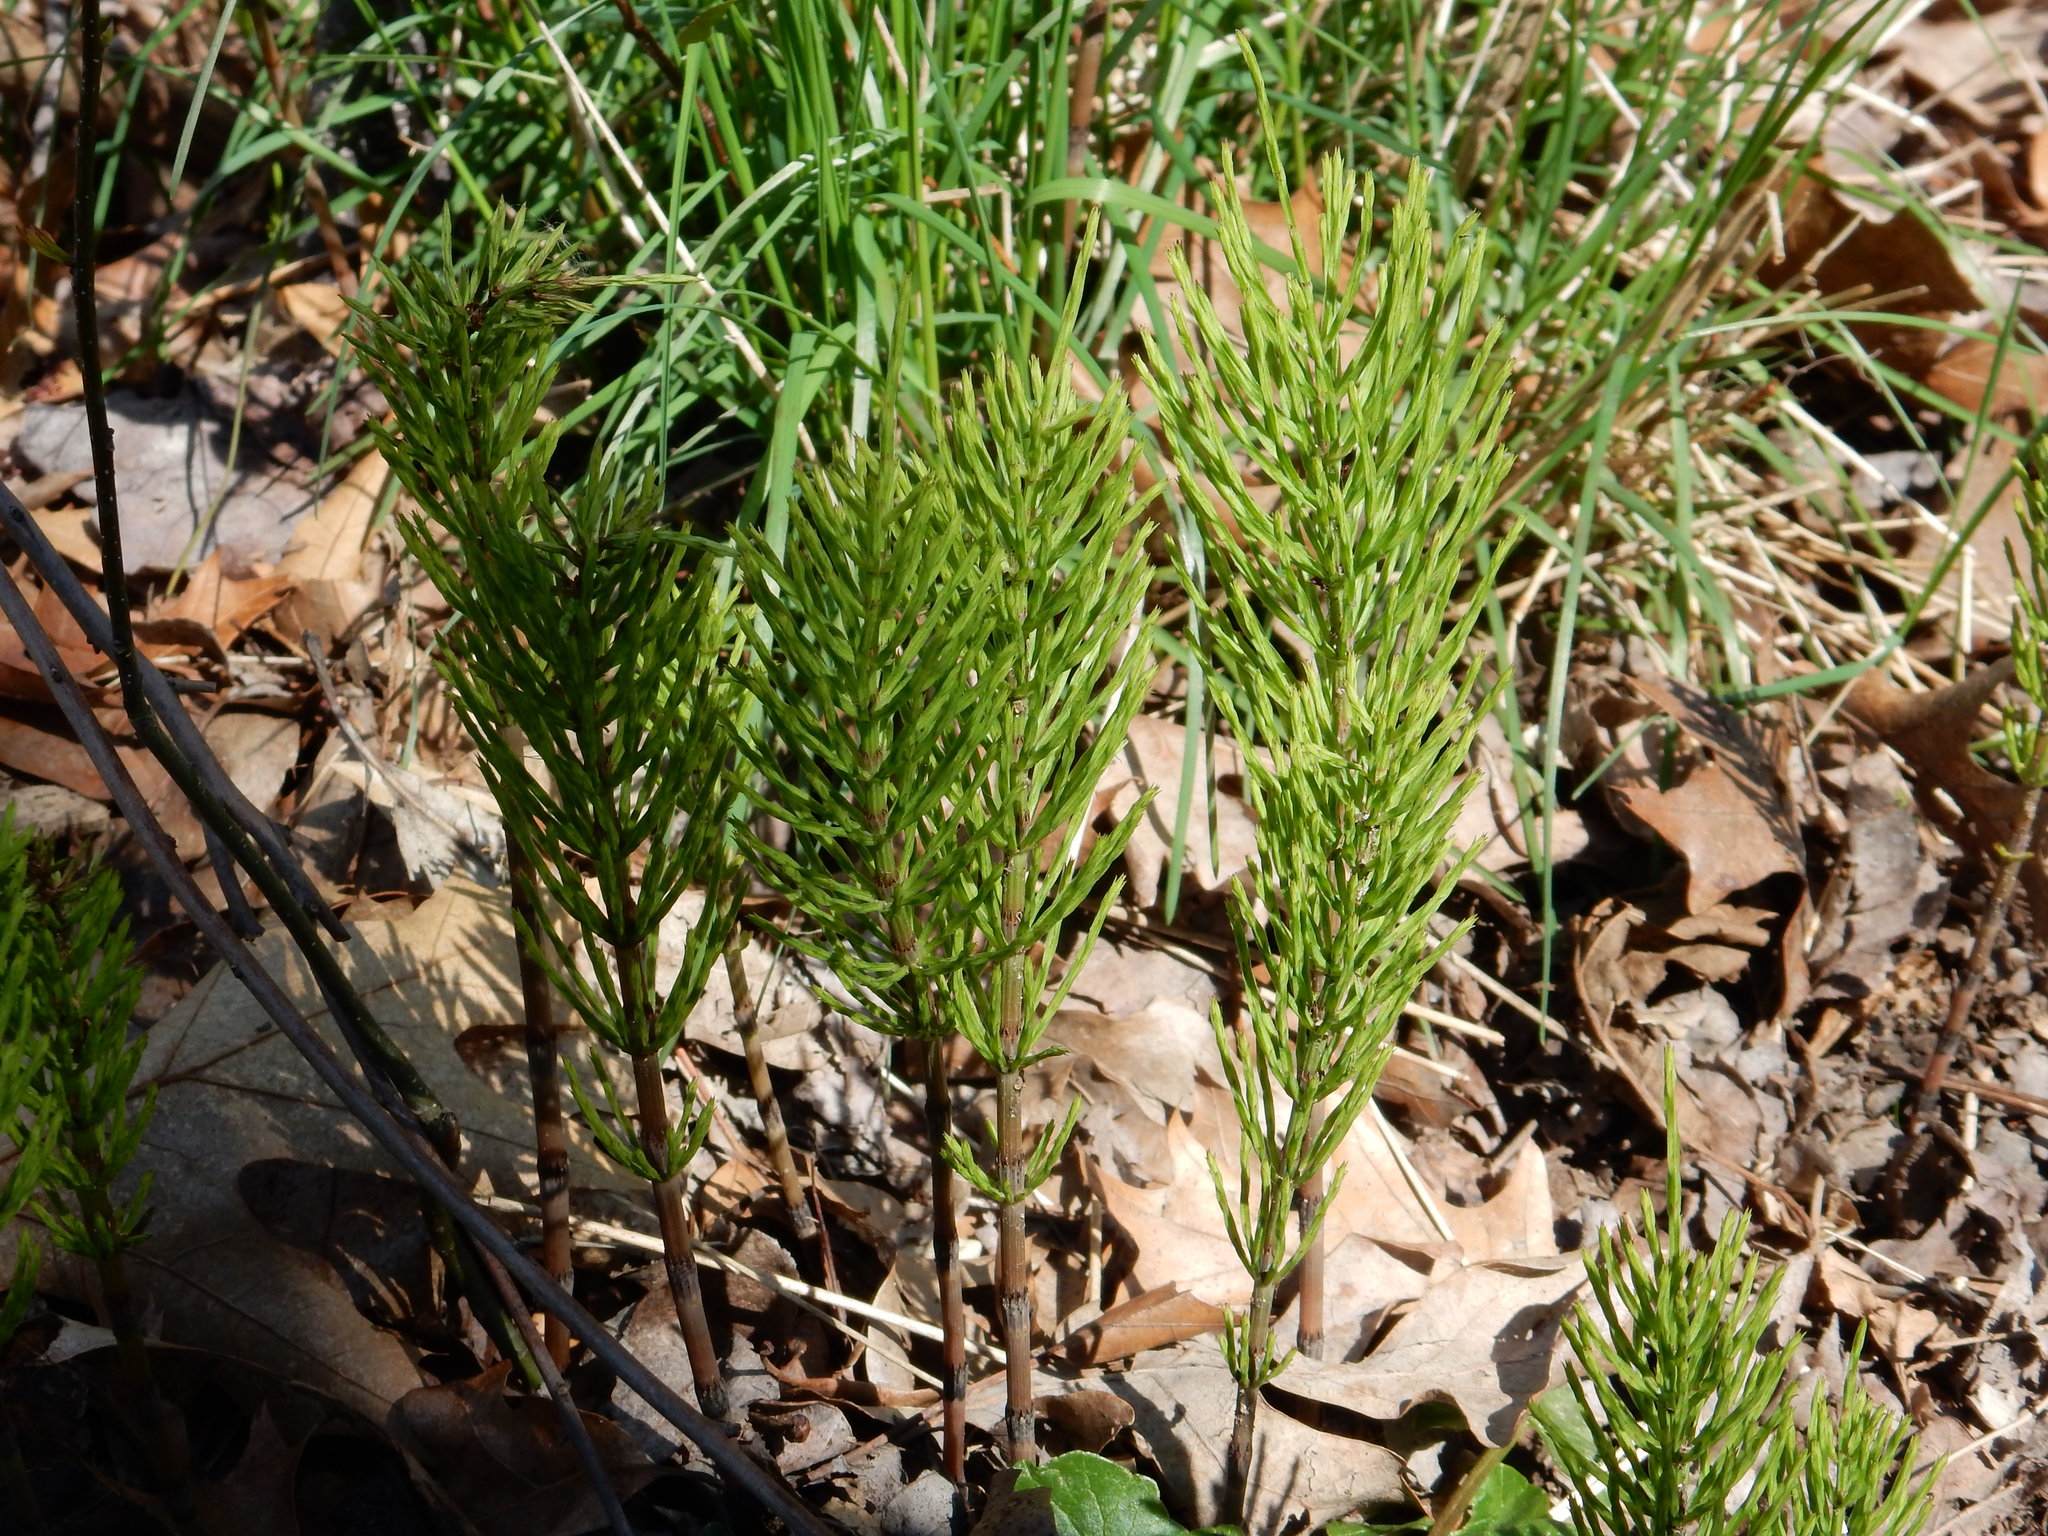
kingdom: Plantae
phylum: Tracheophyta
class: Polypodiopsida
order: Equisetales
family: Equisetaceae
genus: Equisetum
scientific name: Equisetum arvense
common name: Field horsetail
